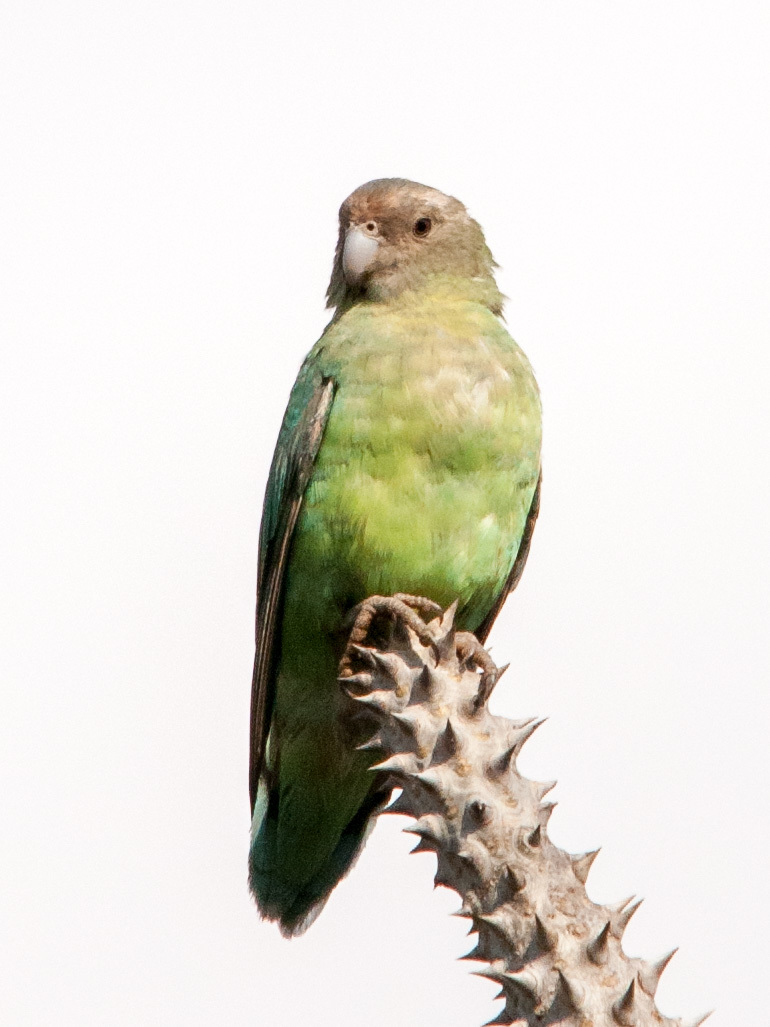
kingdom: Animalia
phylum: Chordata
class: Aves
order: Psittaciformes
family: Psittacidae
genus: Agapornis
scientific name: Agapornis canus
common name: Grey-headed lovebird
